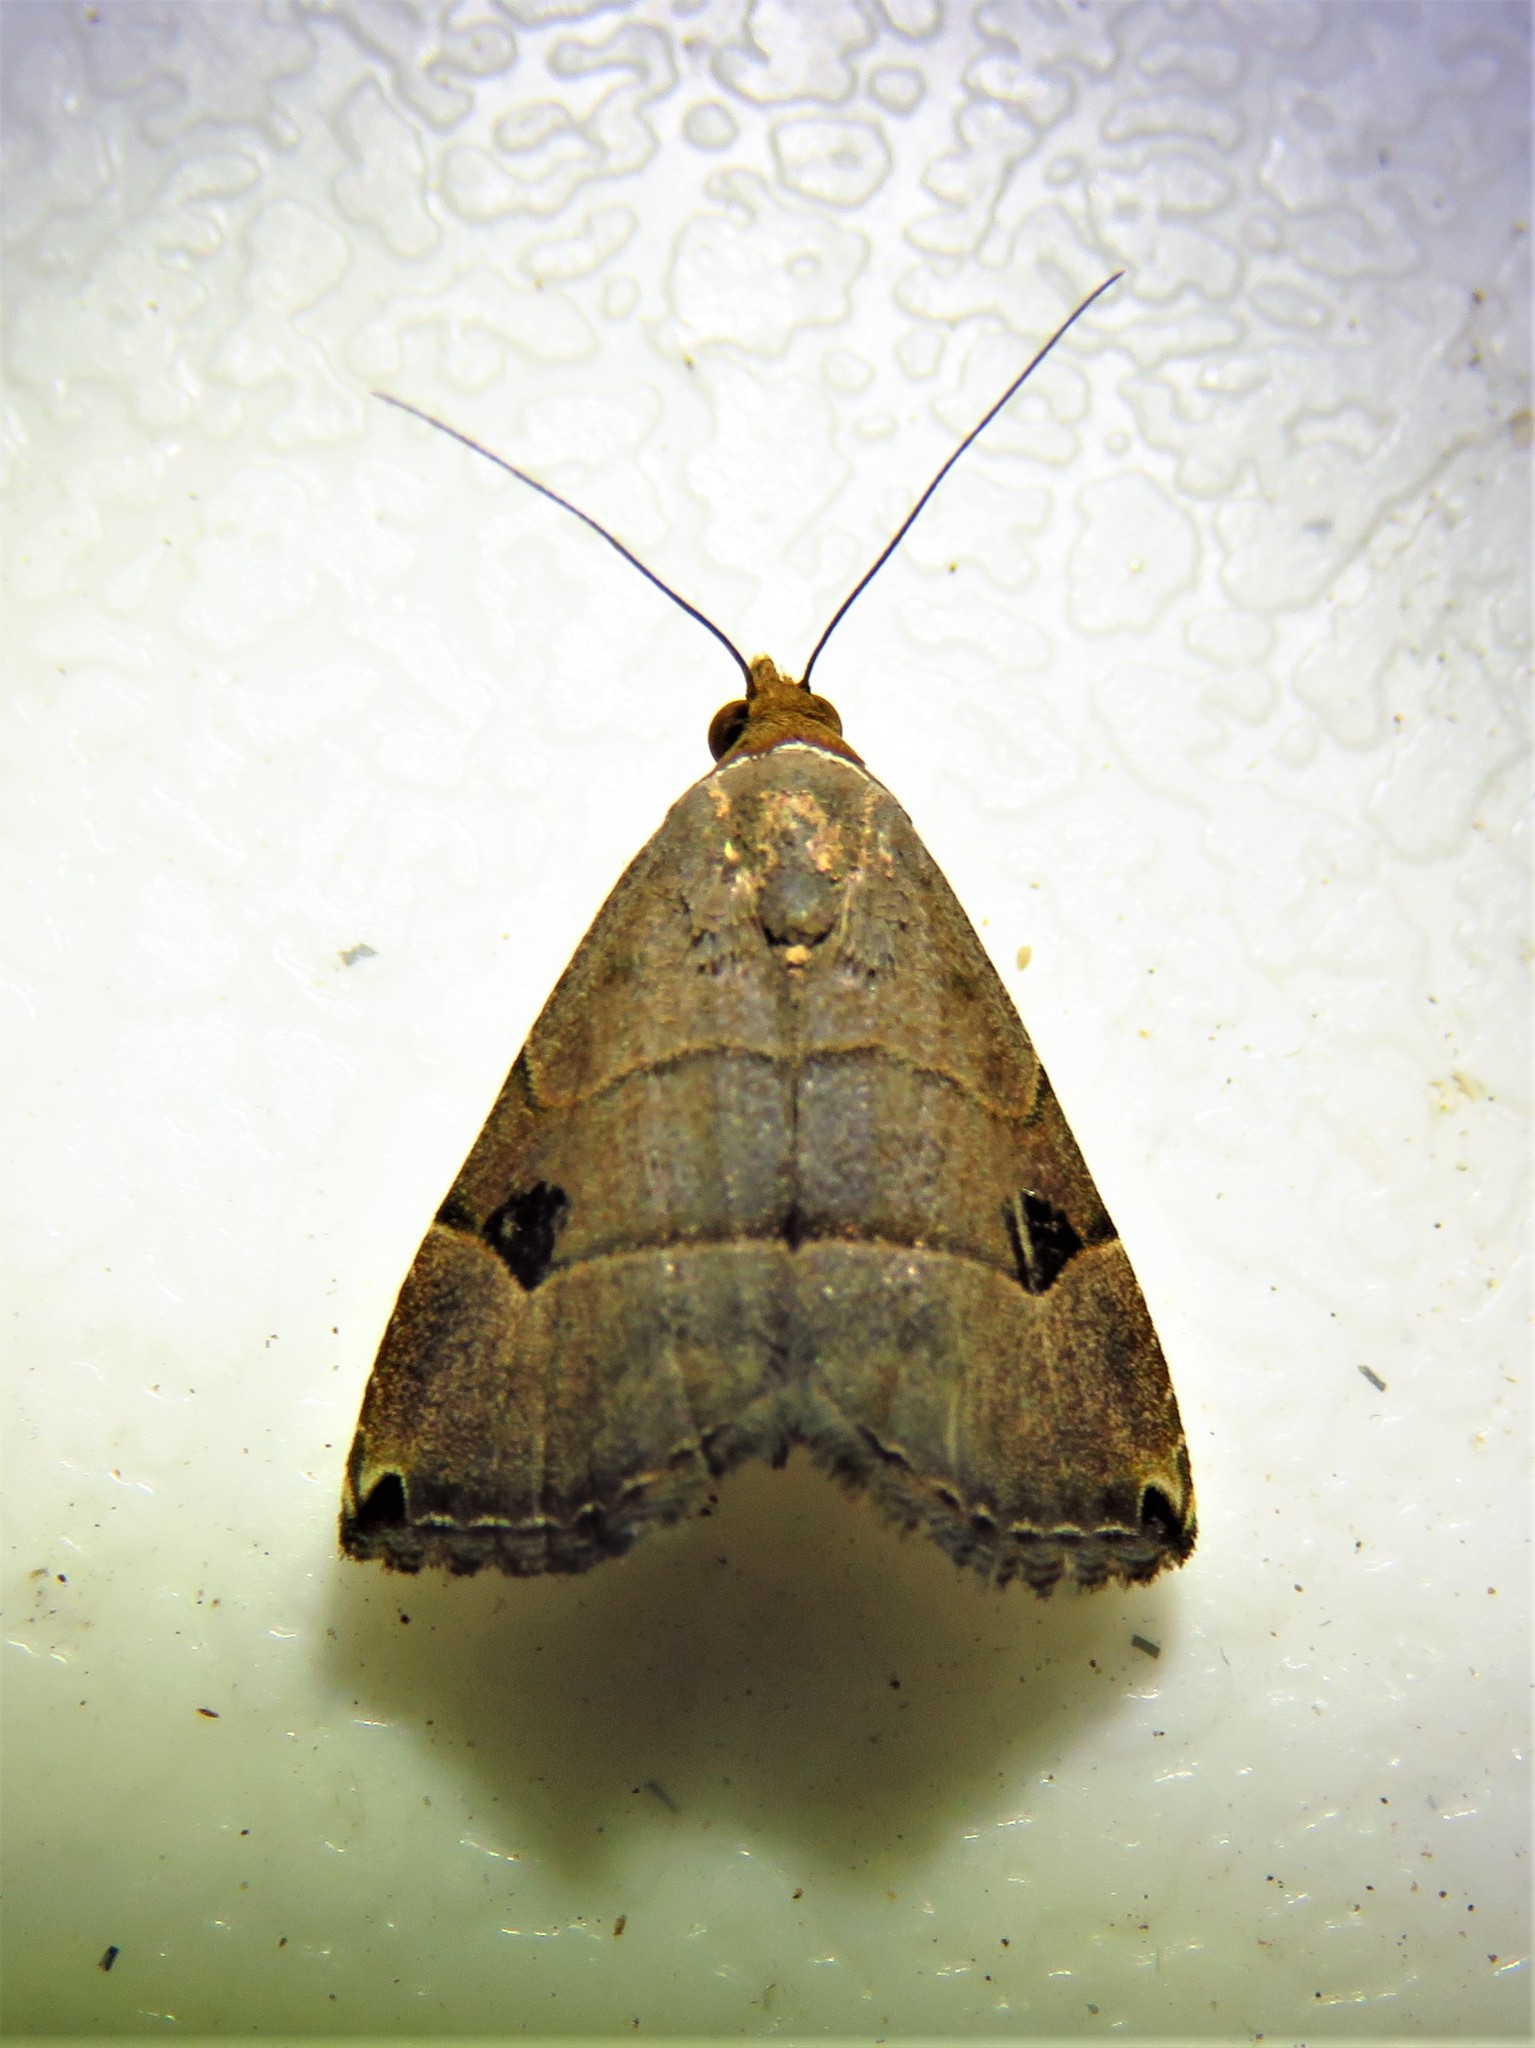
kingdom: Animalia
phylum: Arthropoda
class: Insecta
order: Lepidoptera
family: Noctuidae
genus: Abacena
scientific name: Abacena mundula
